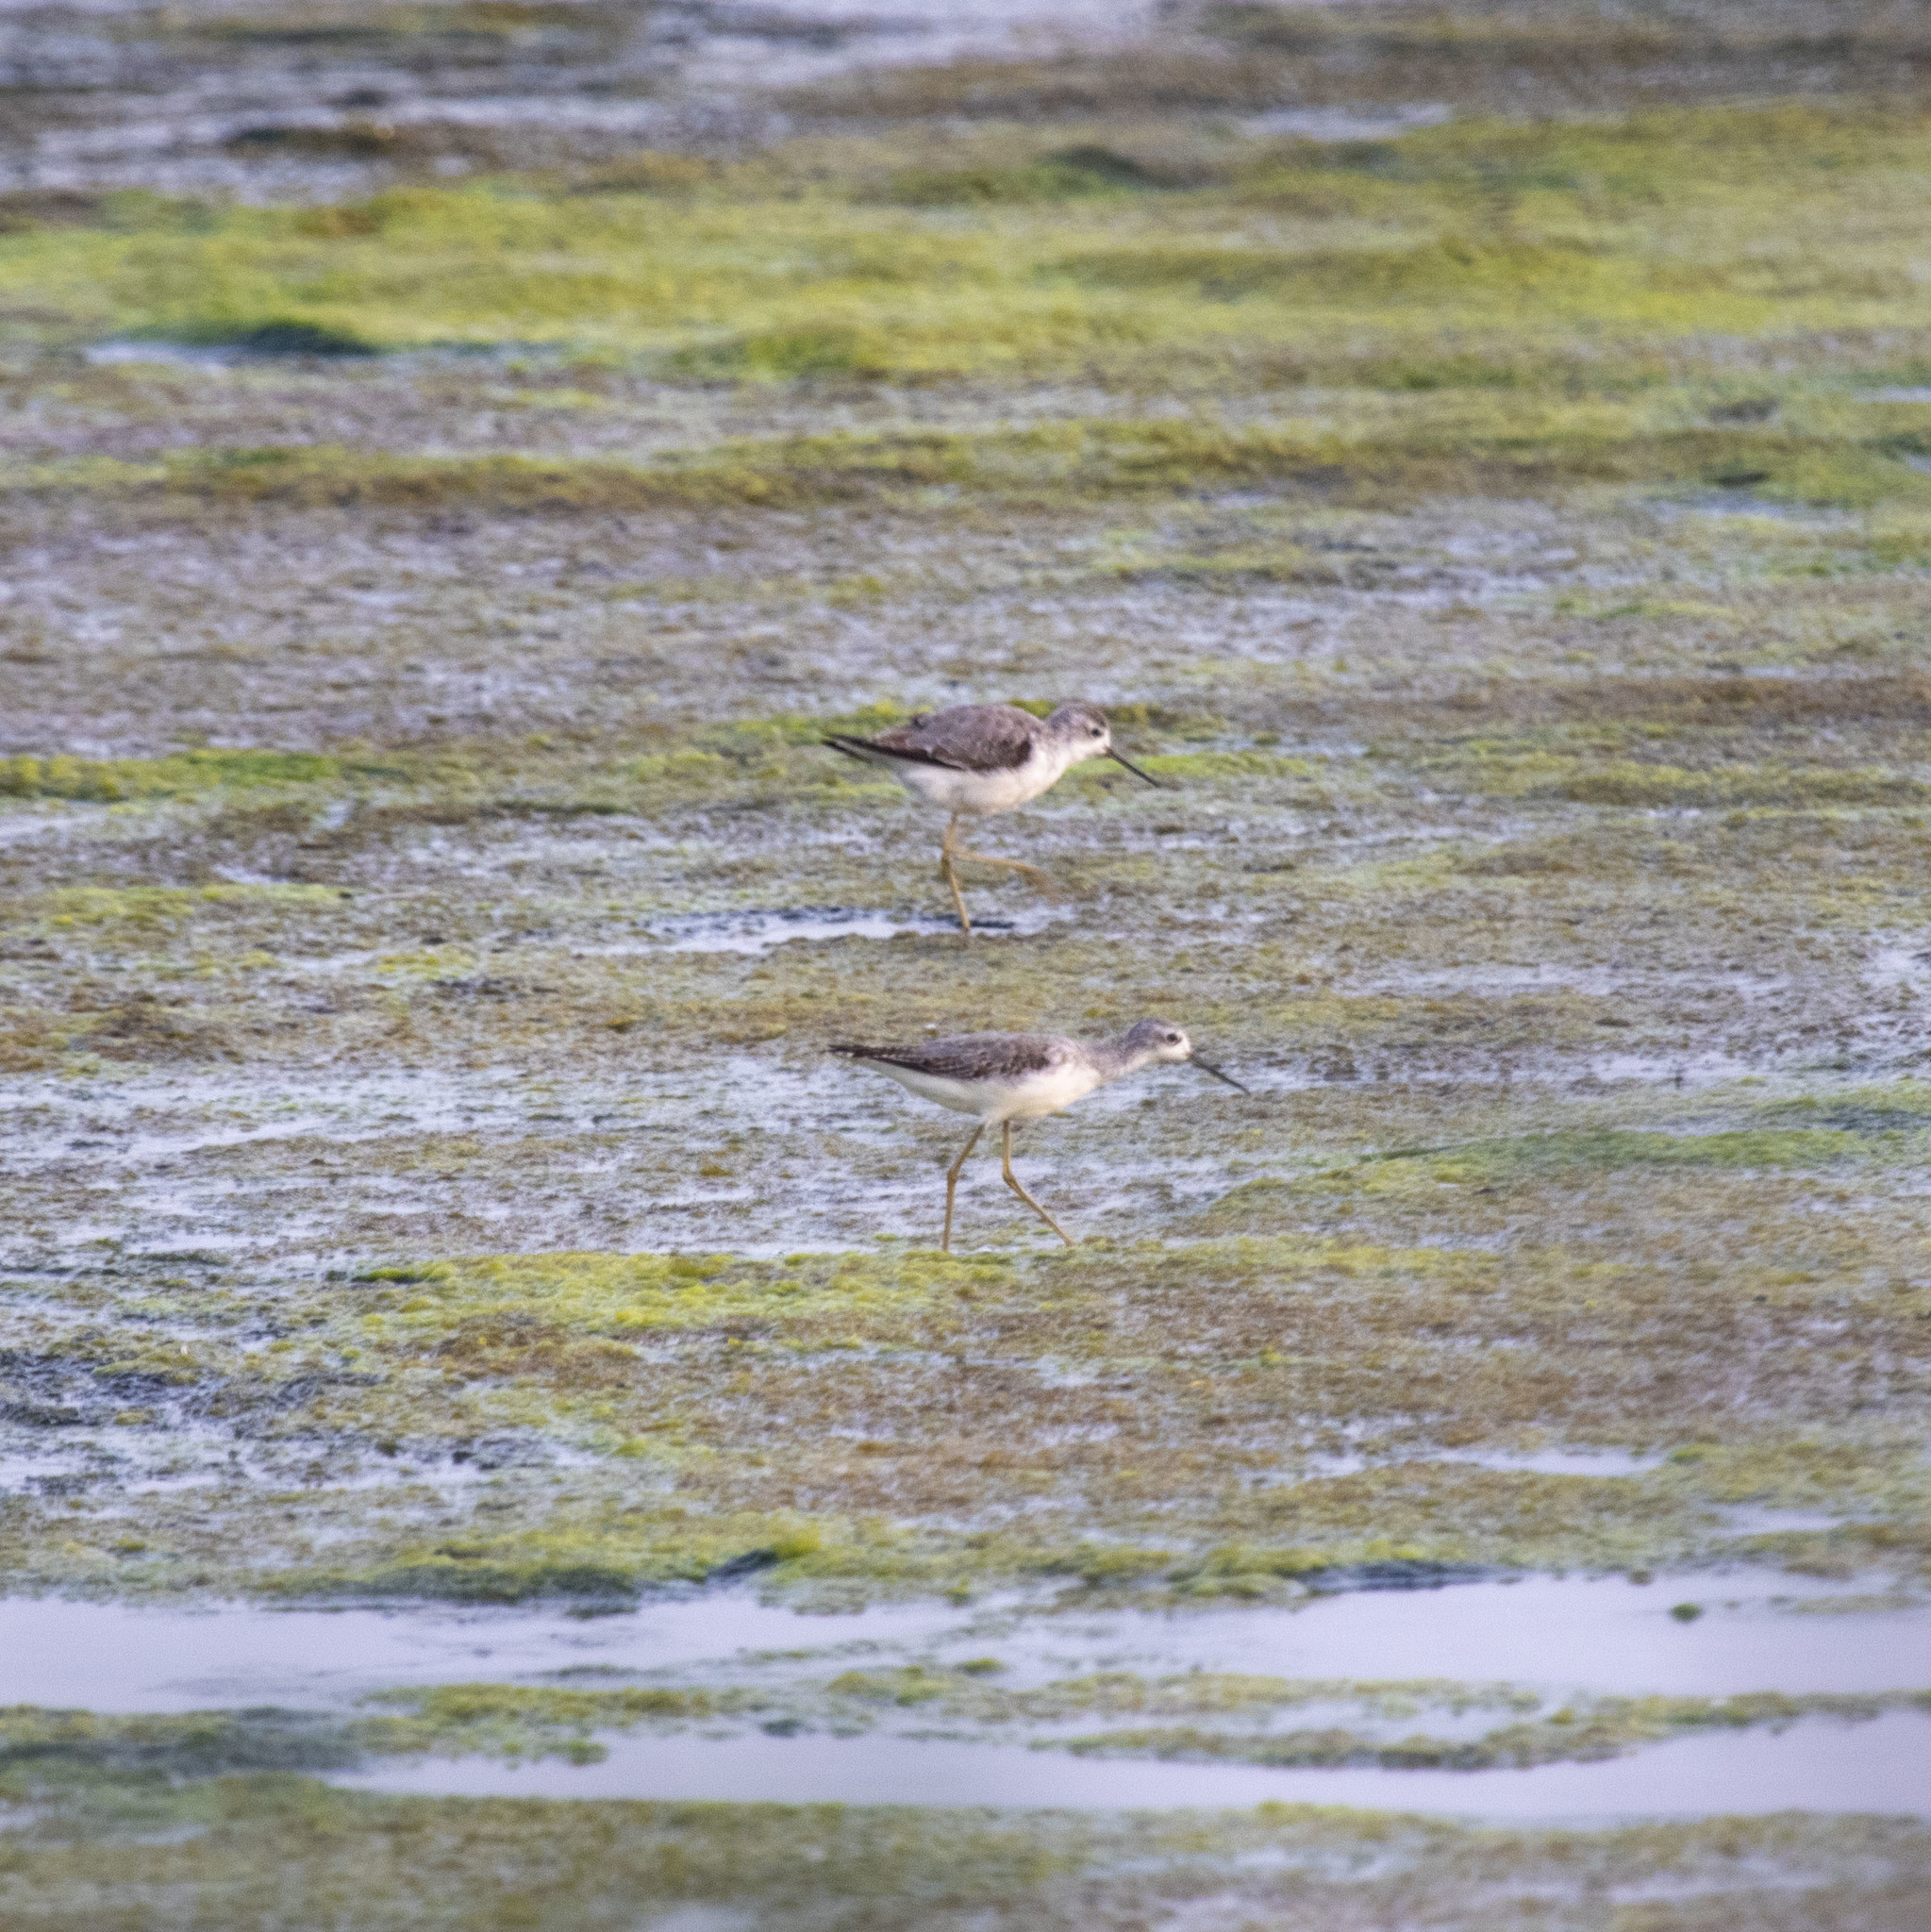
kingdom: Animalia
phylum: Chordata
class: Aves
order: Charadriiformes
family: Scolopacidae
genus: Tringa
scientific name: Tringa stagnatilis
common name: Marsh sandpiper
